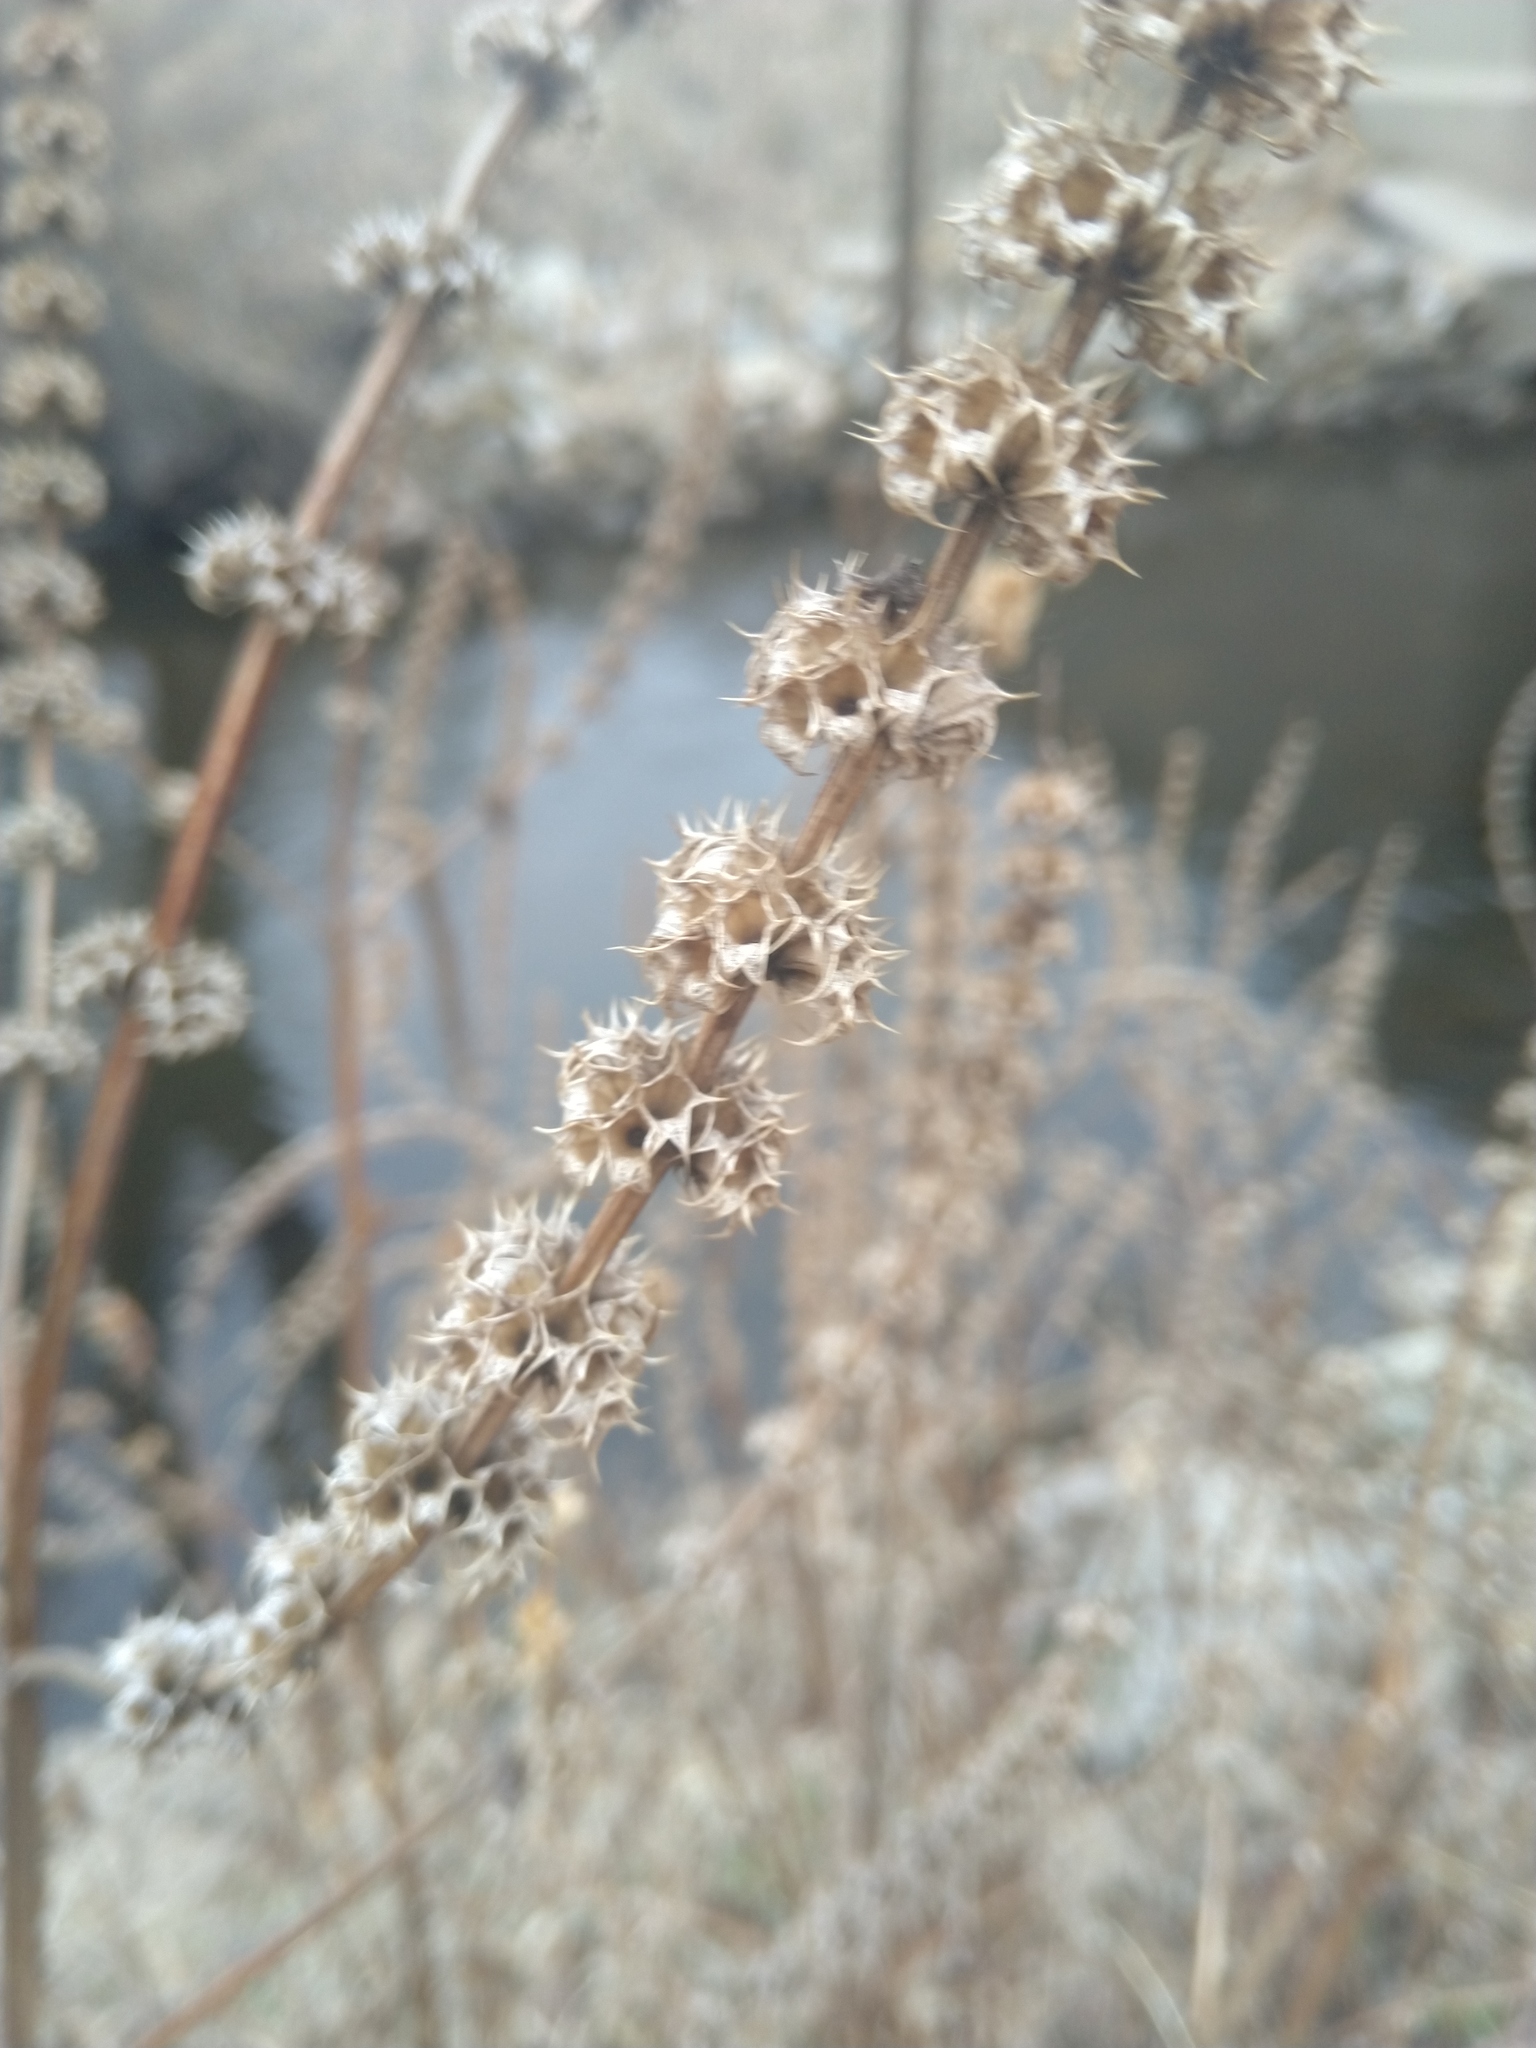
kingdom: Plantae
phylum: Tracheophyta
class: Magnoliopsida
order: Lamiales
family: Lamiaceae
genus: Leonurus
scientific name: Leonurus cardiaca
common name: Motherwort
